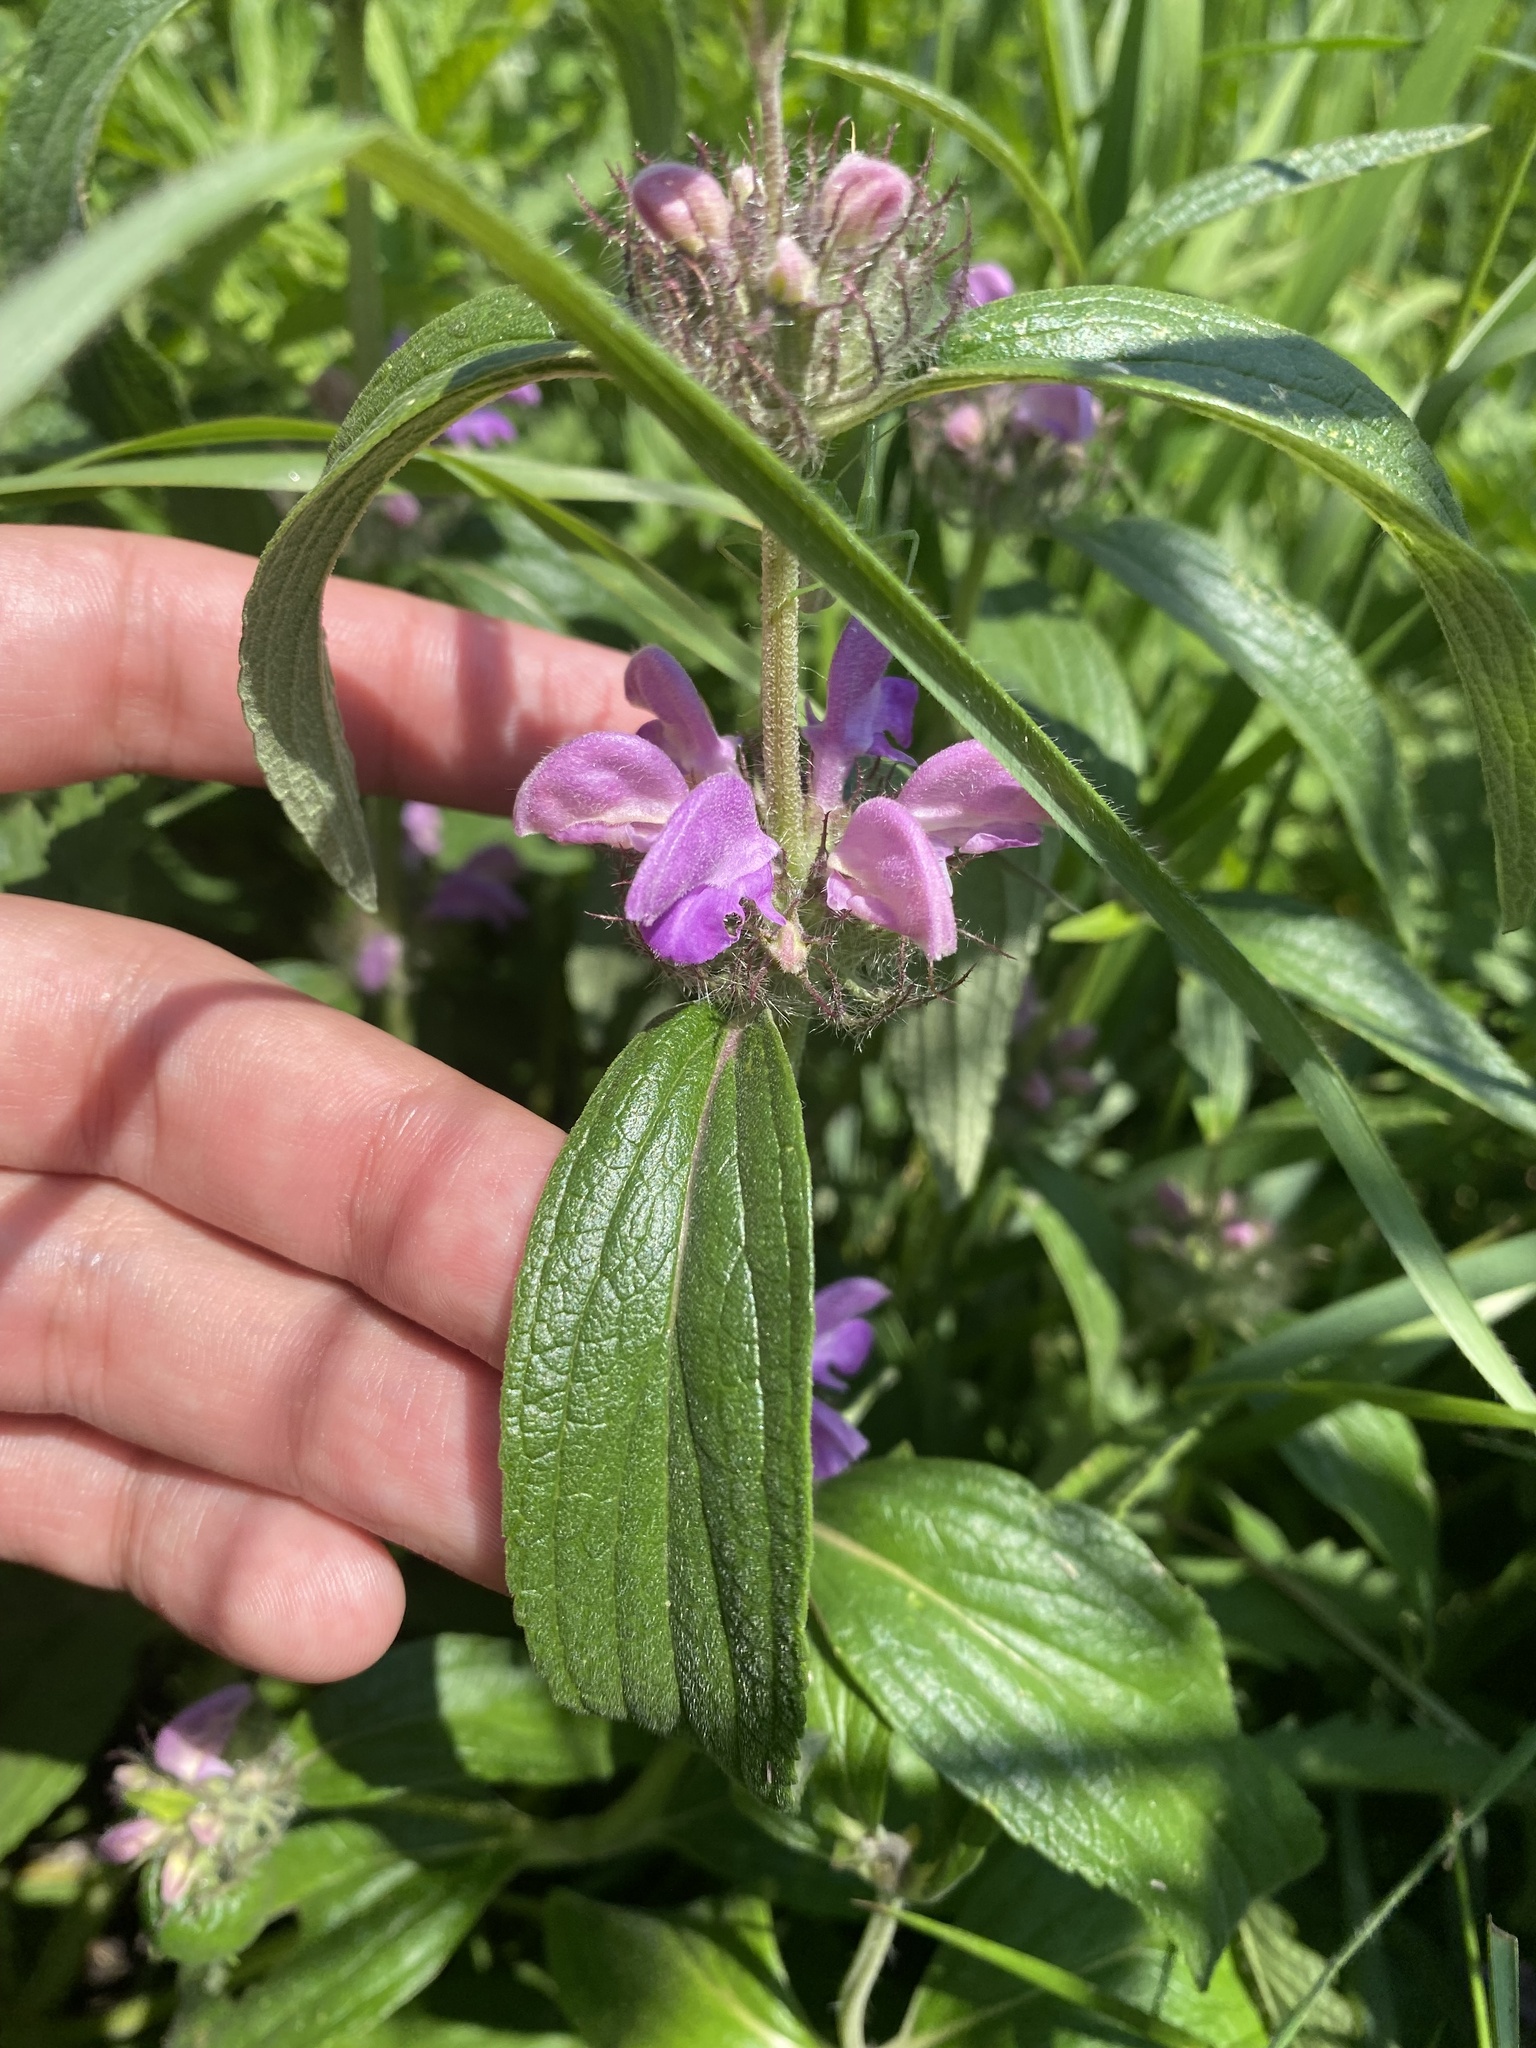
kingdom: Plantae
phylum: Tracheophyta
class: Magnoliopsida
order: Lamiales
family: Lamiaceae
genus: Phlomis
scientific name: Phlomis herba-venti
